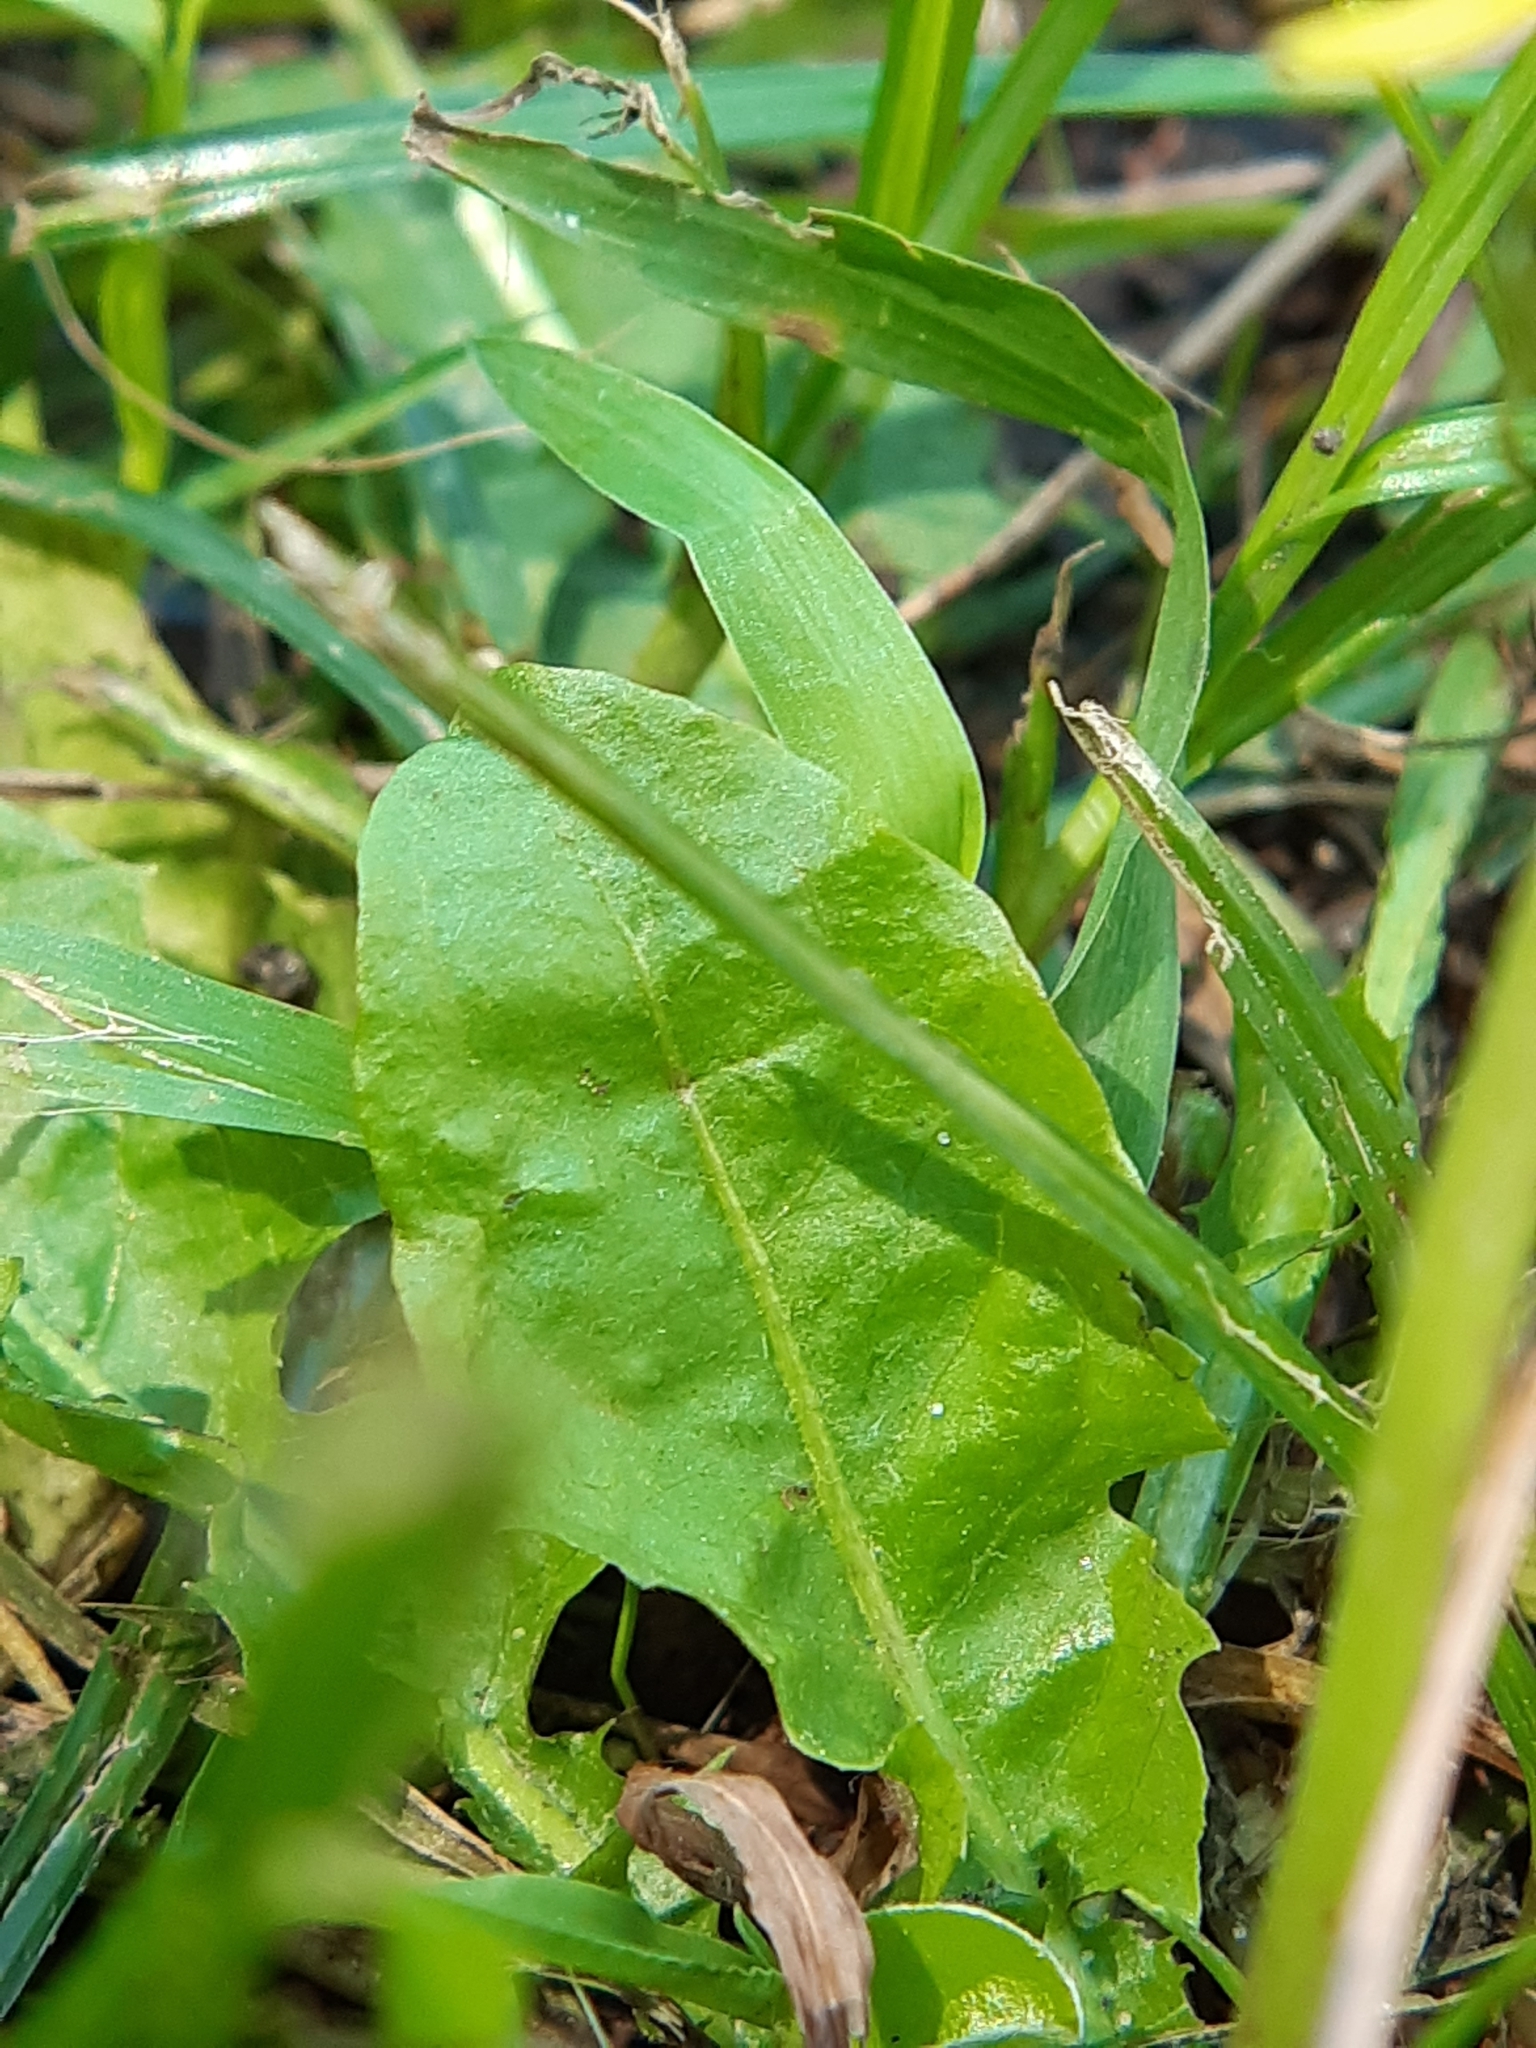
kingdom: Plantae
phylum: Tracheophyta
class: Magnoliopsida
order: Asterales
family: Asteraceae
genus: Taraxacum
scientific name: Taraxacum officinale
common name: Common dandelion
